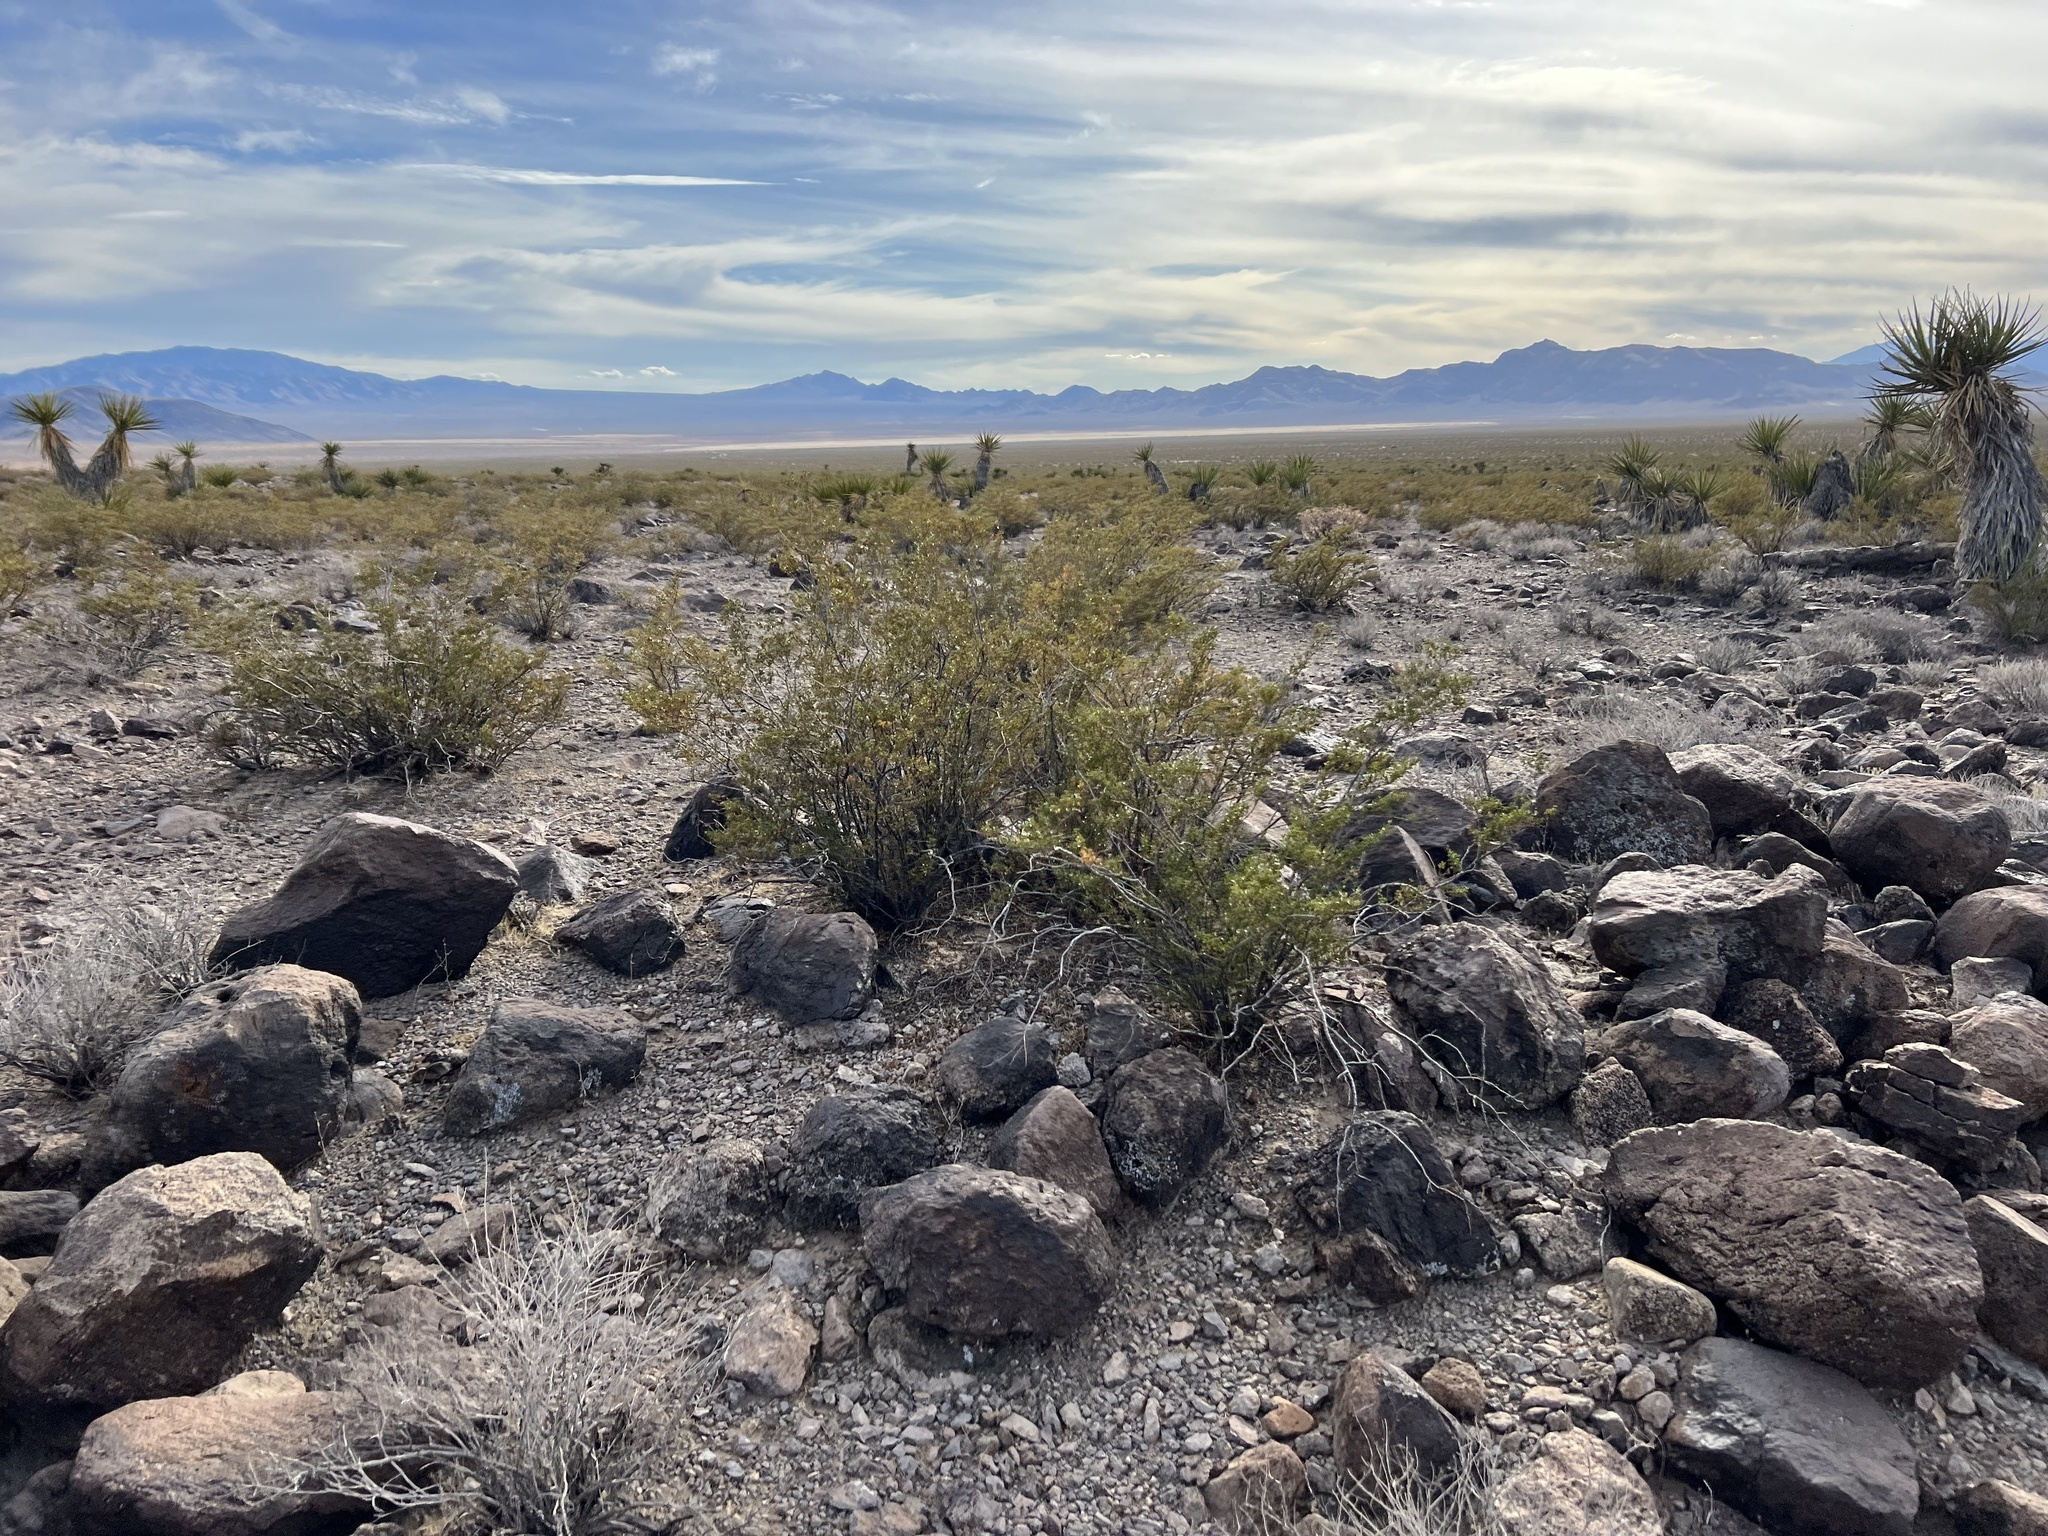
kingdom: Plantae
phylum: Tracheophyta
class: Magnoliopsida
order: Zygophyllales
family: Zygophyllaceae
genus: Larrea
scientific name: Larrea tridentata
